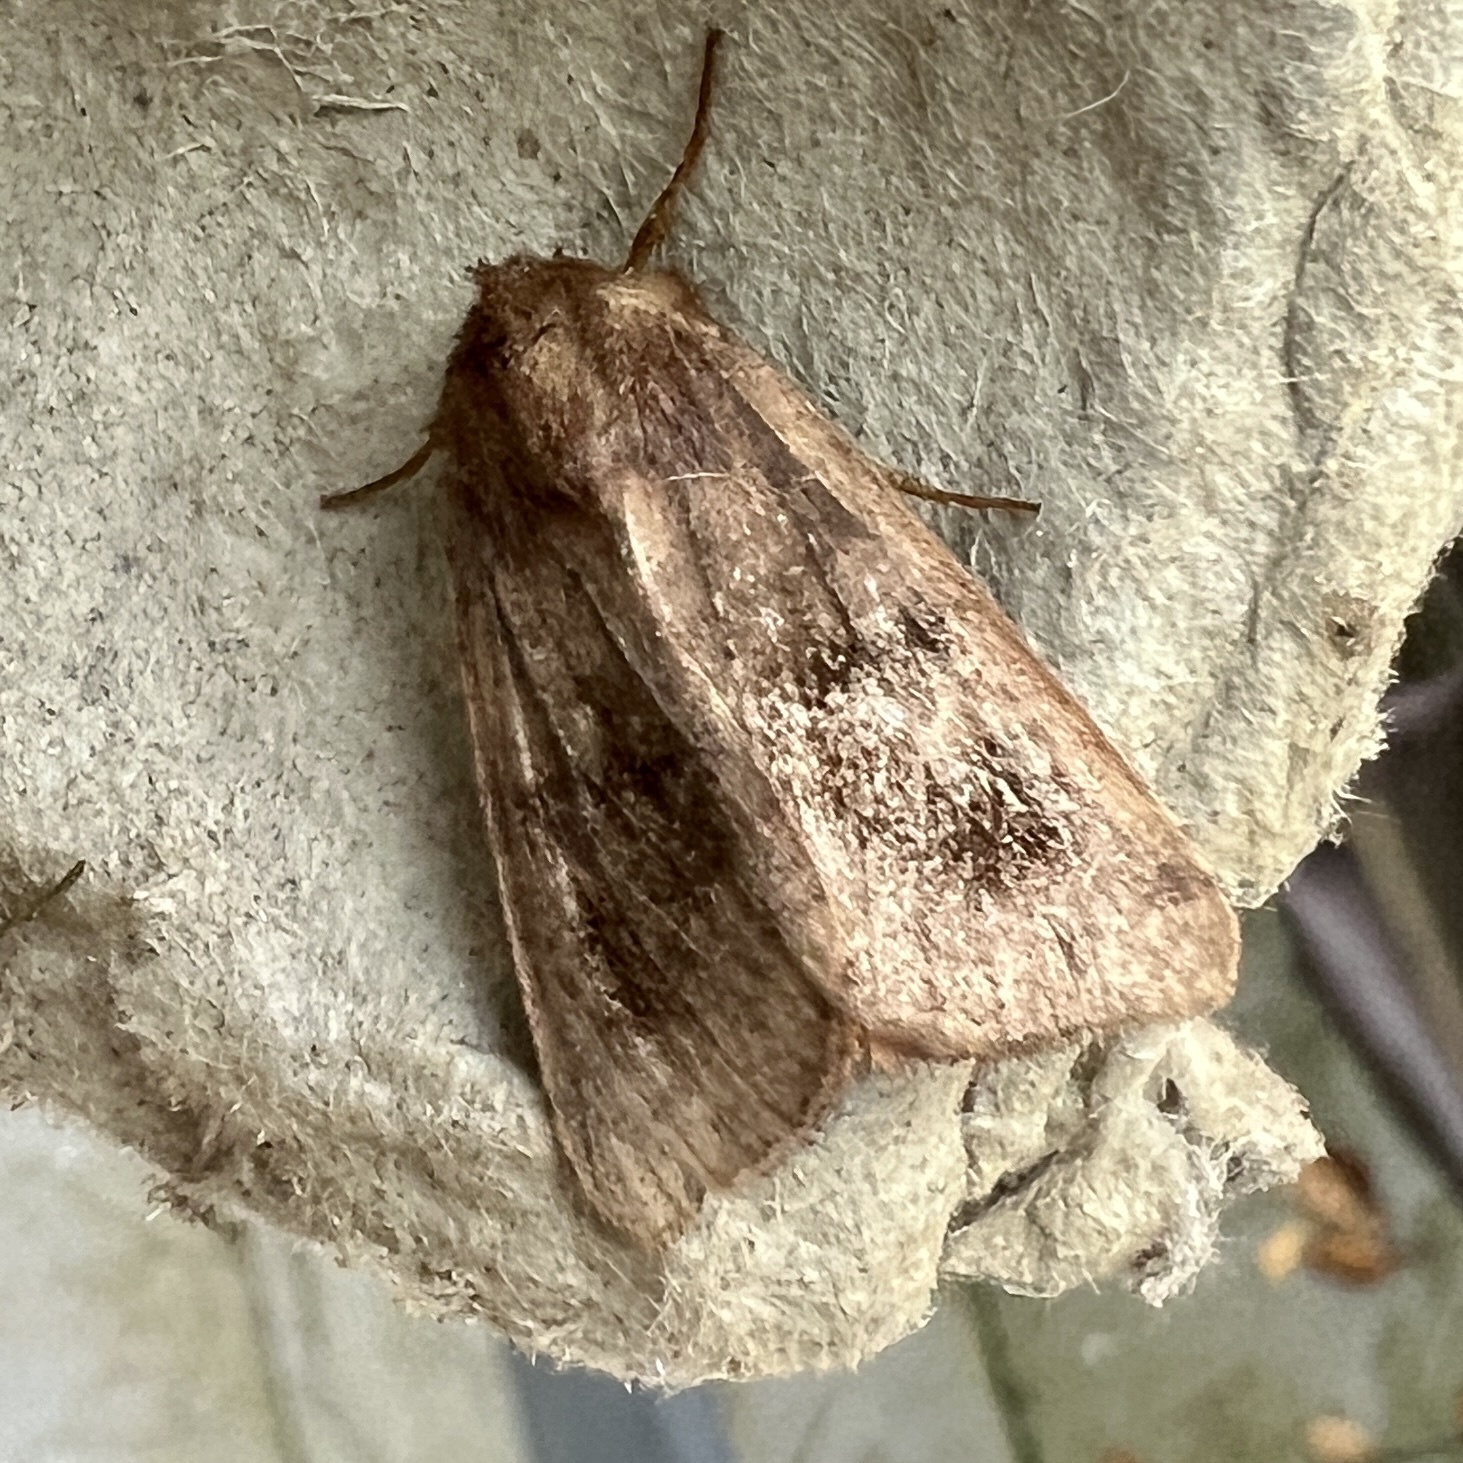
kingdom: Animalia
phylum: Arthropoda
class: Insecta
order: Lepidoptera
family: Noctuidae
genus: Nephelodes
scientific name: Nephelodes minians
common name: Bronzed cutworm
